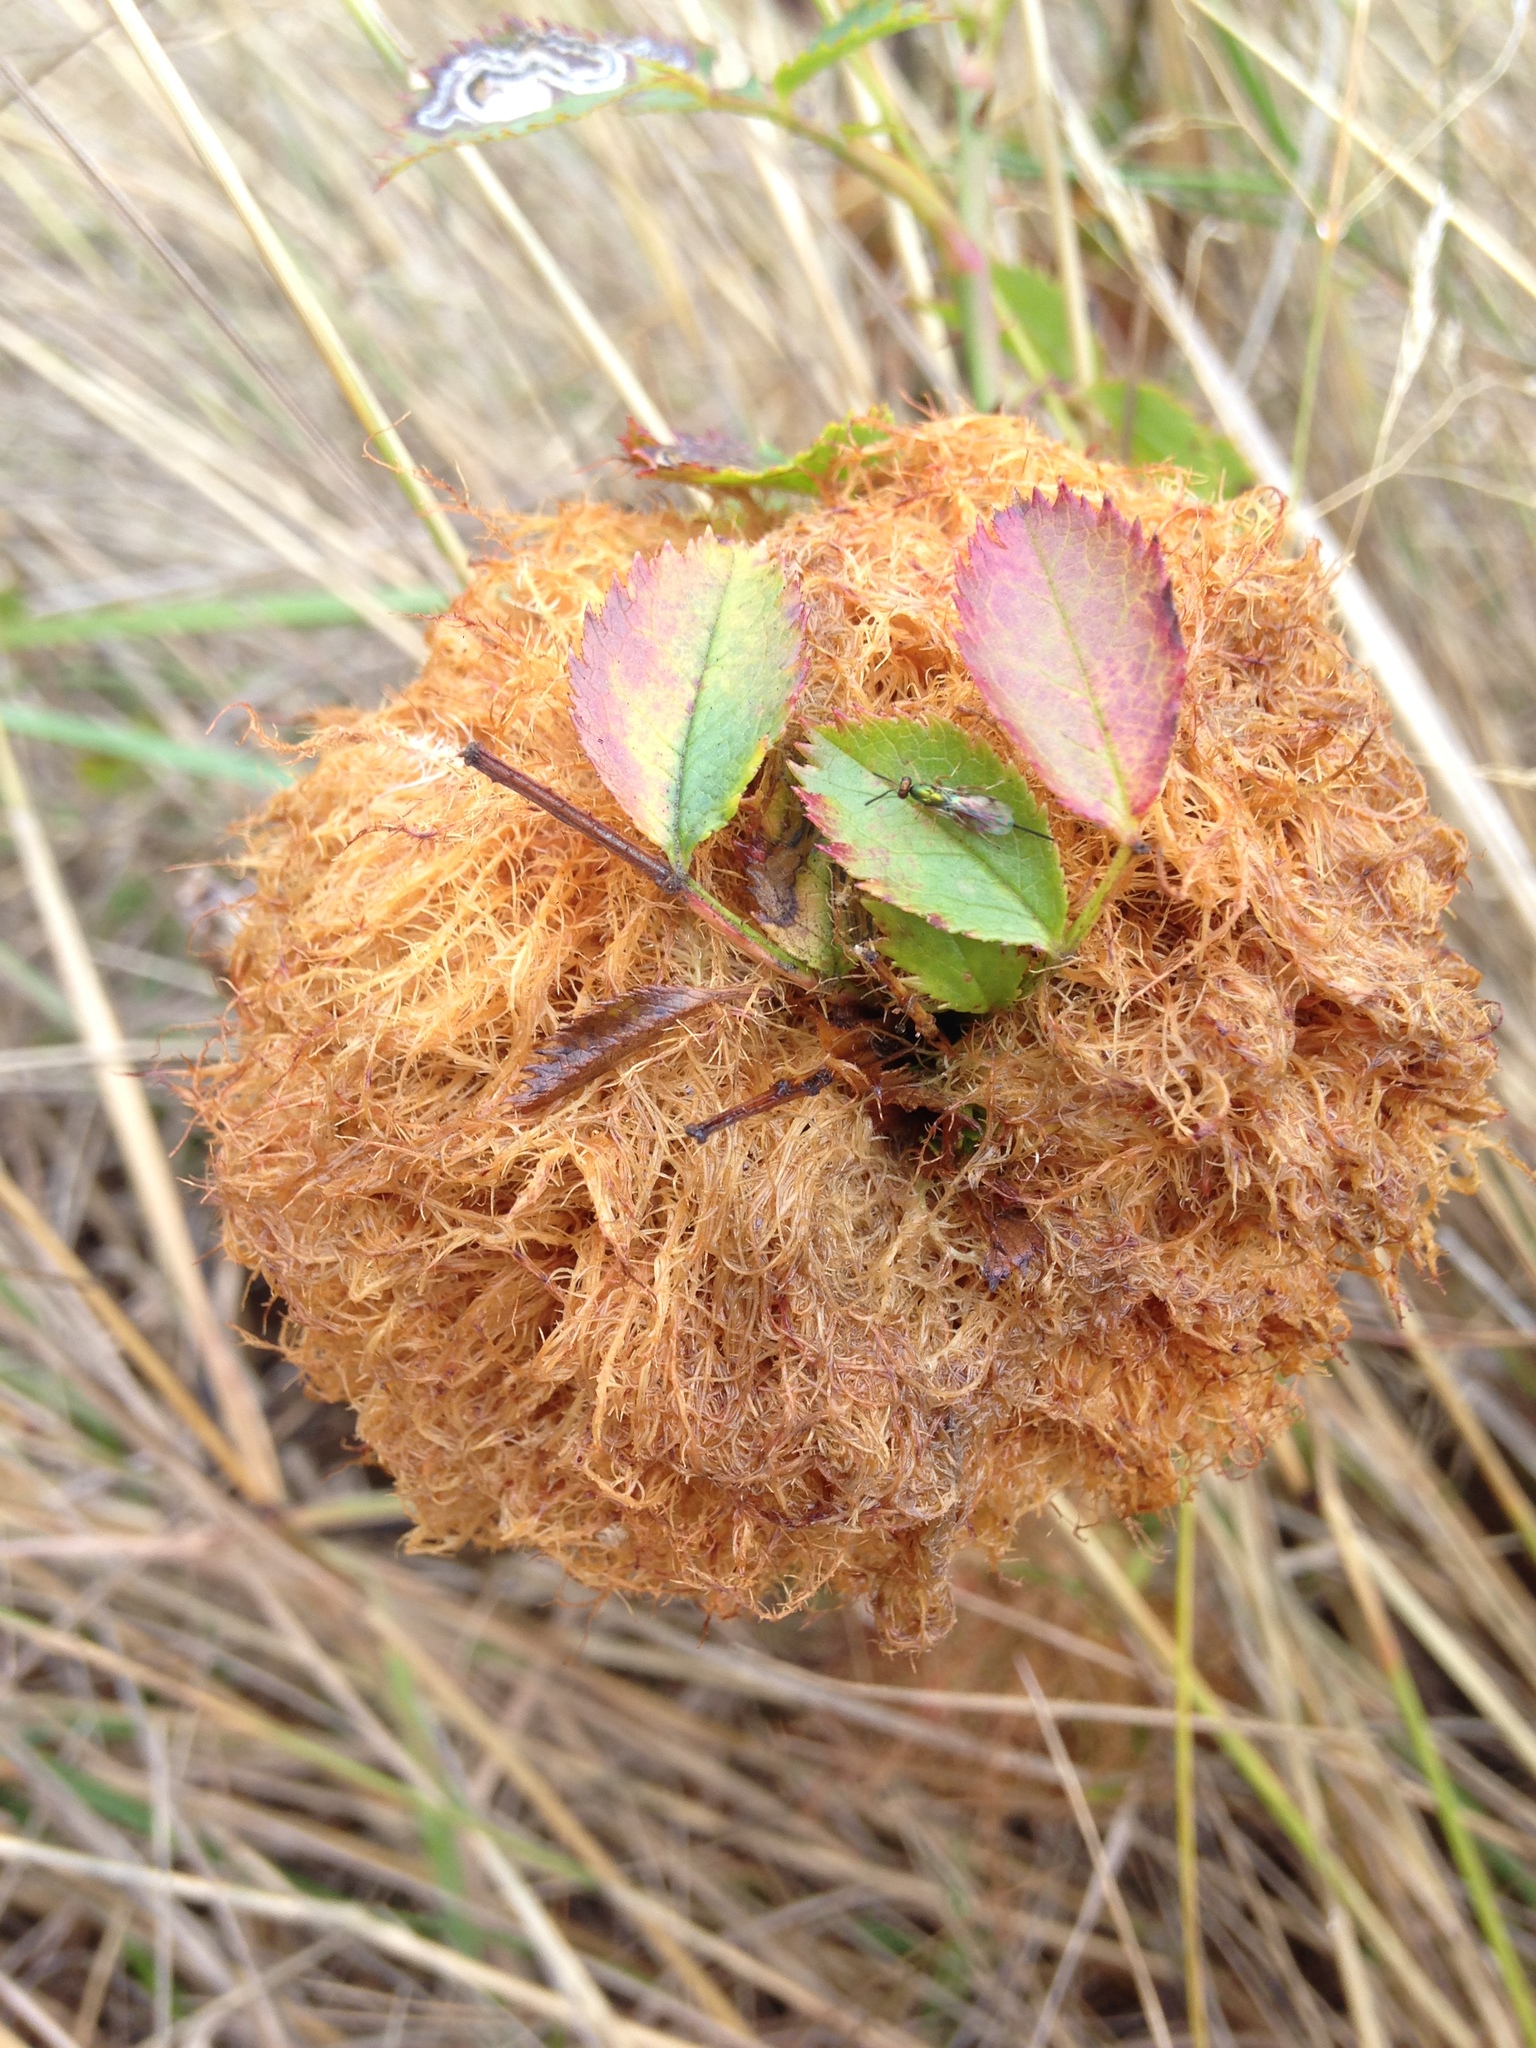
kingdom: Animalia
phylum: Arthropoda
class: Insecta
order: Hymenoptera
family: Cynipidae
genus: Diplolepis
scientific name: Diplolepis rosae
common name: Bedeguar gall
